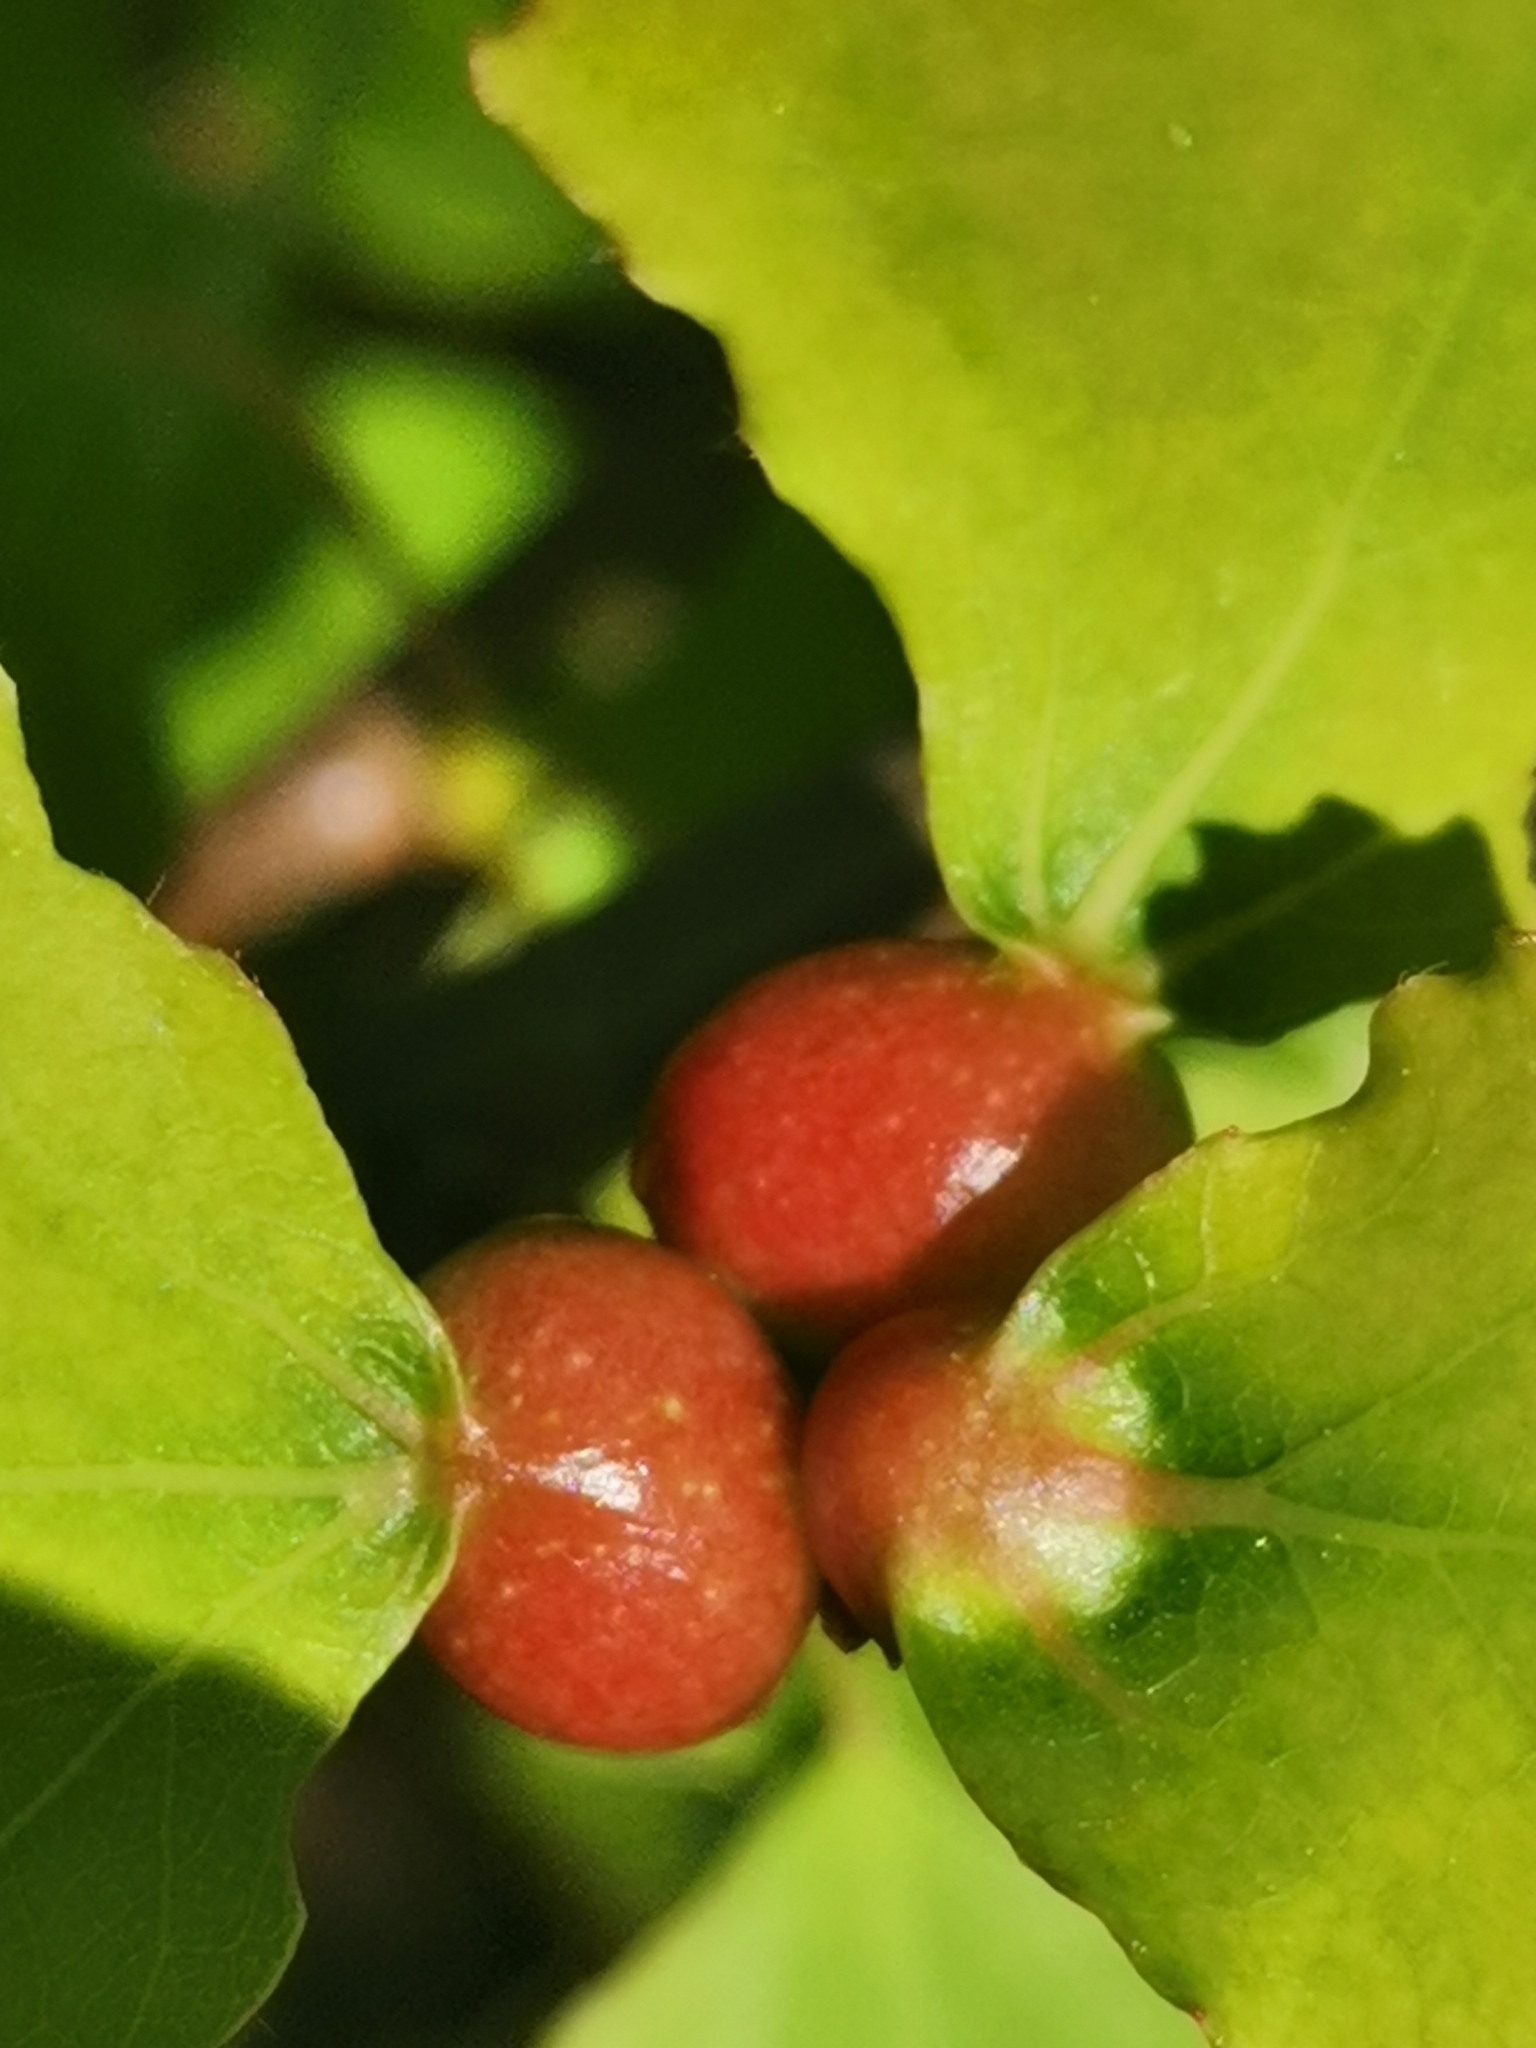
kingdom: Animalia
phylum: Arthropoda
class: Insecta
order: Diptera
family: Cecidomyiidae
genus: Contarinia
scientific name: Contarinia petioli
